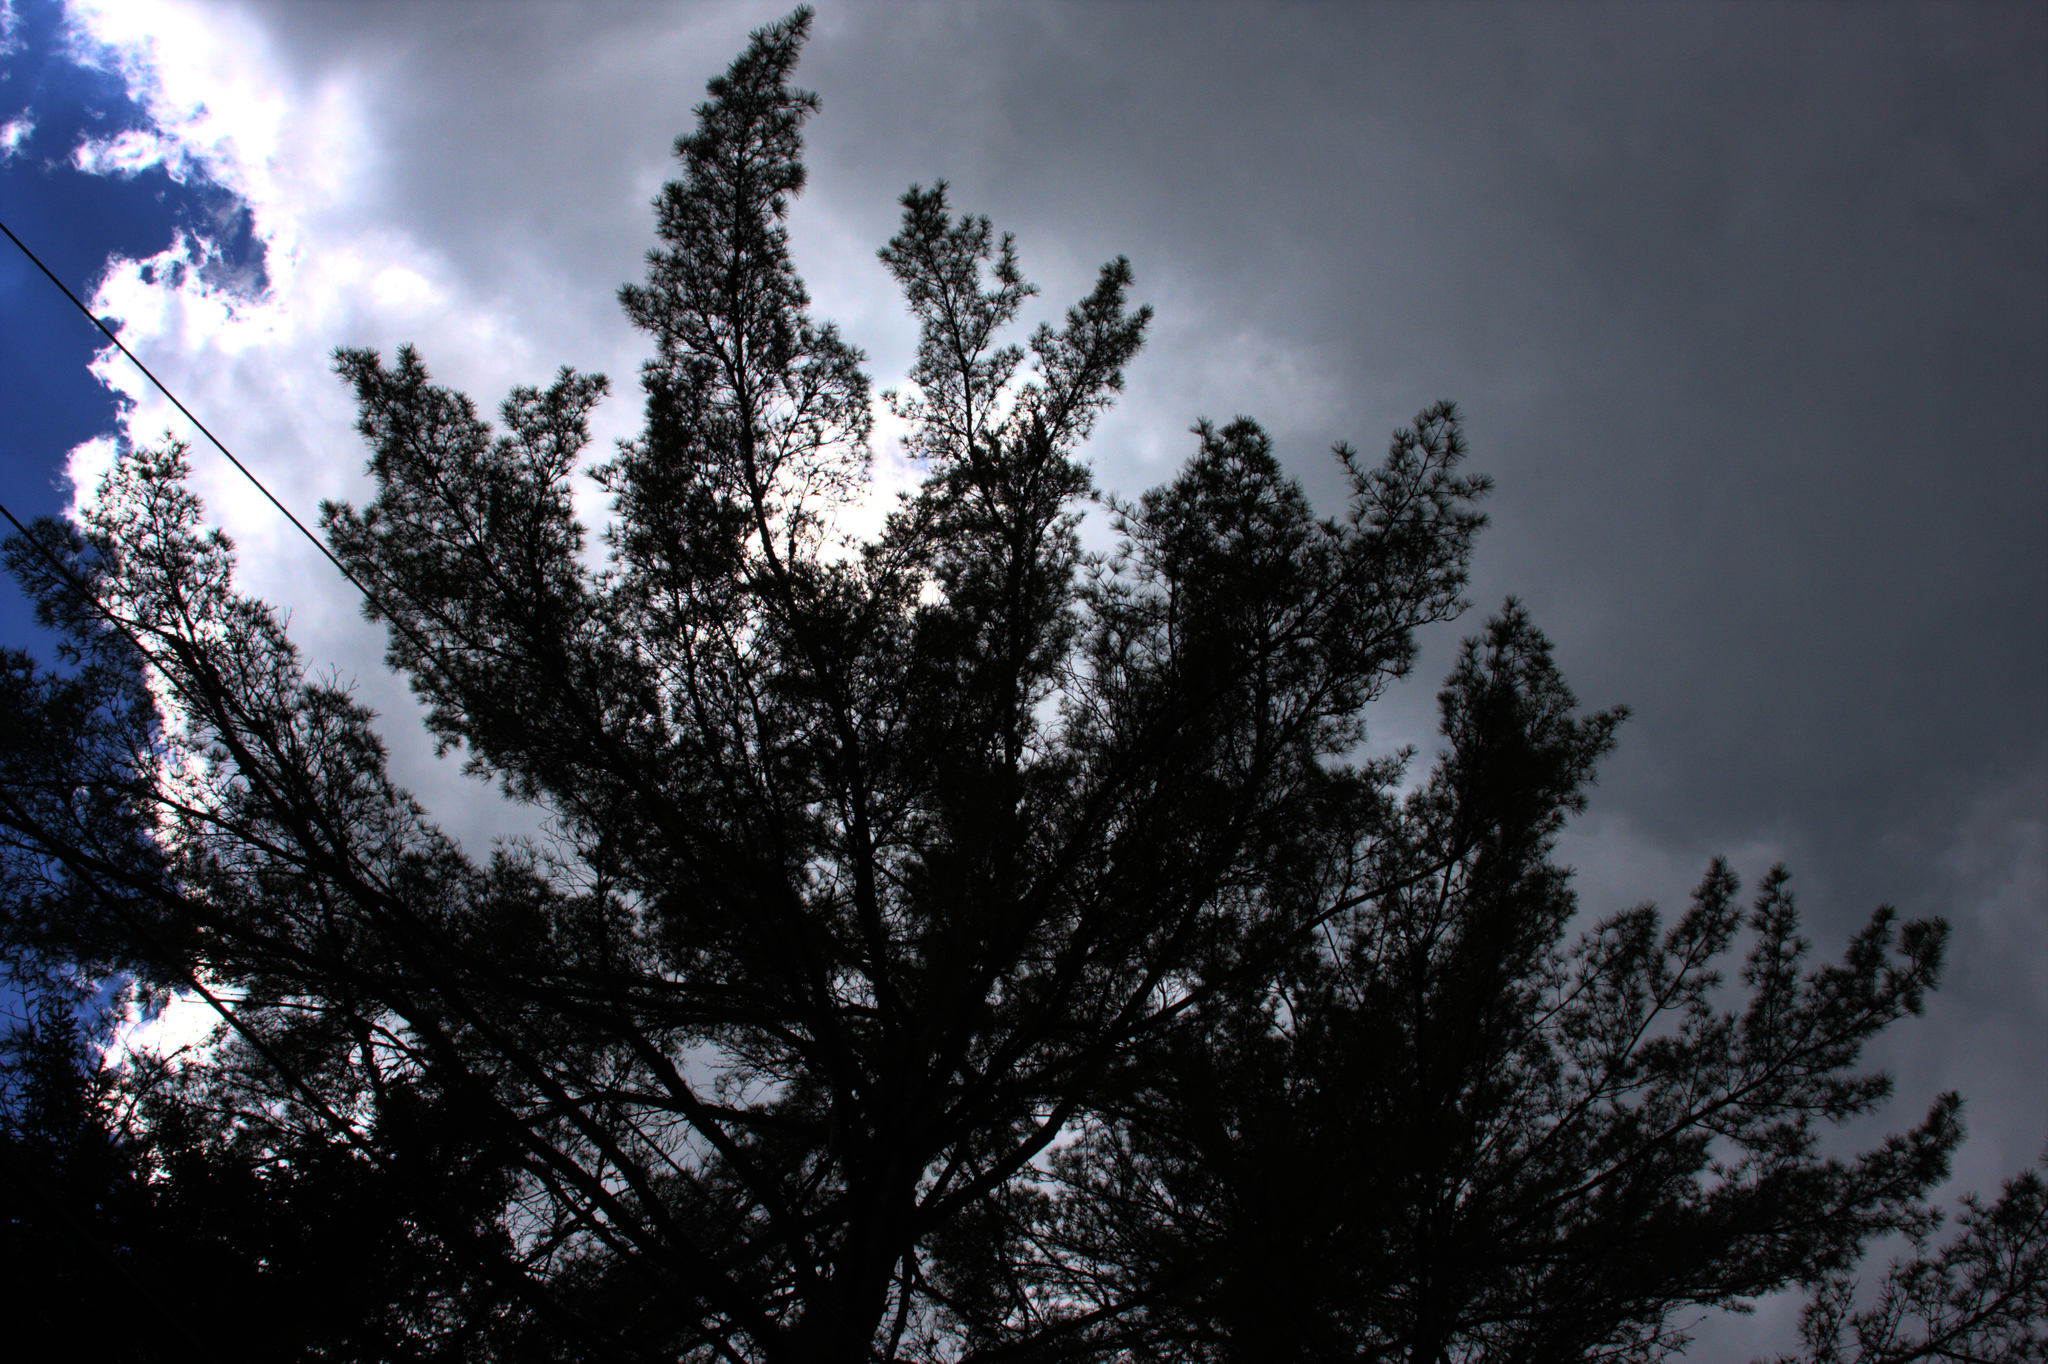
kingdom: Plantae
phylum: Tracheophyta
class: Pinopsida
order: Pinales
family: Pinaceae
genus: Pinus
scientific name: Pinus strobus
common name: Weymouth pine
